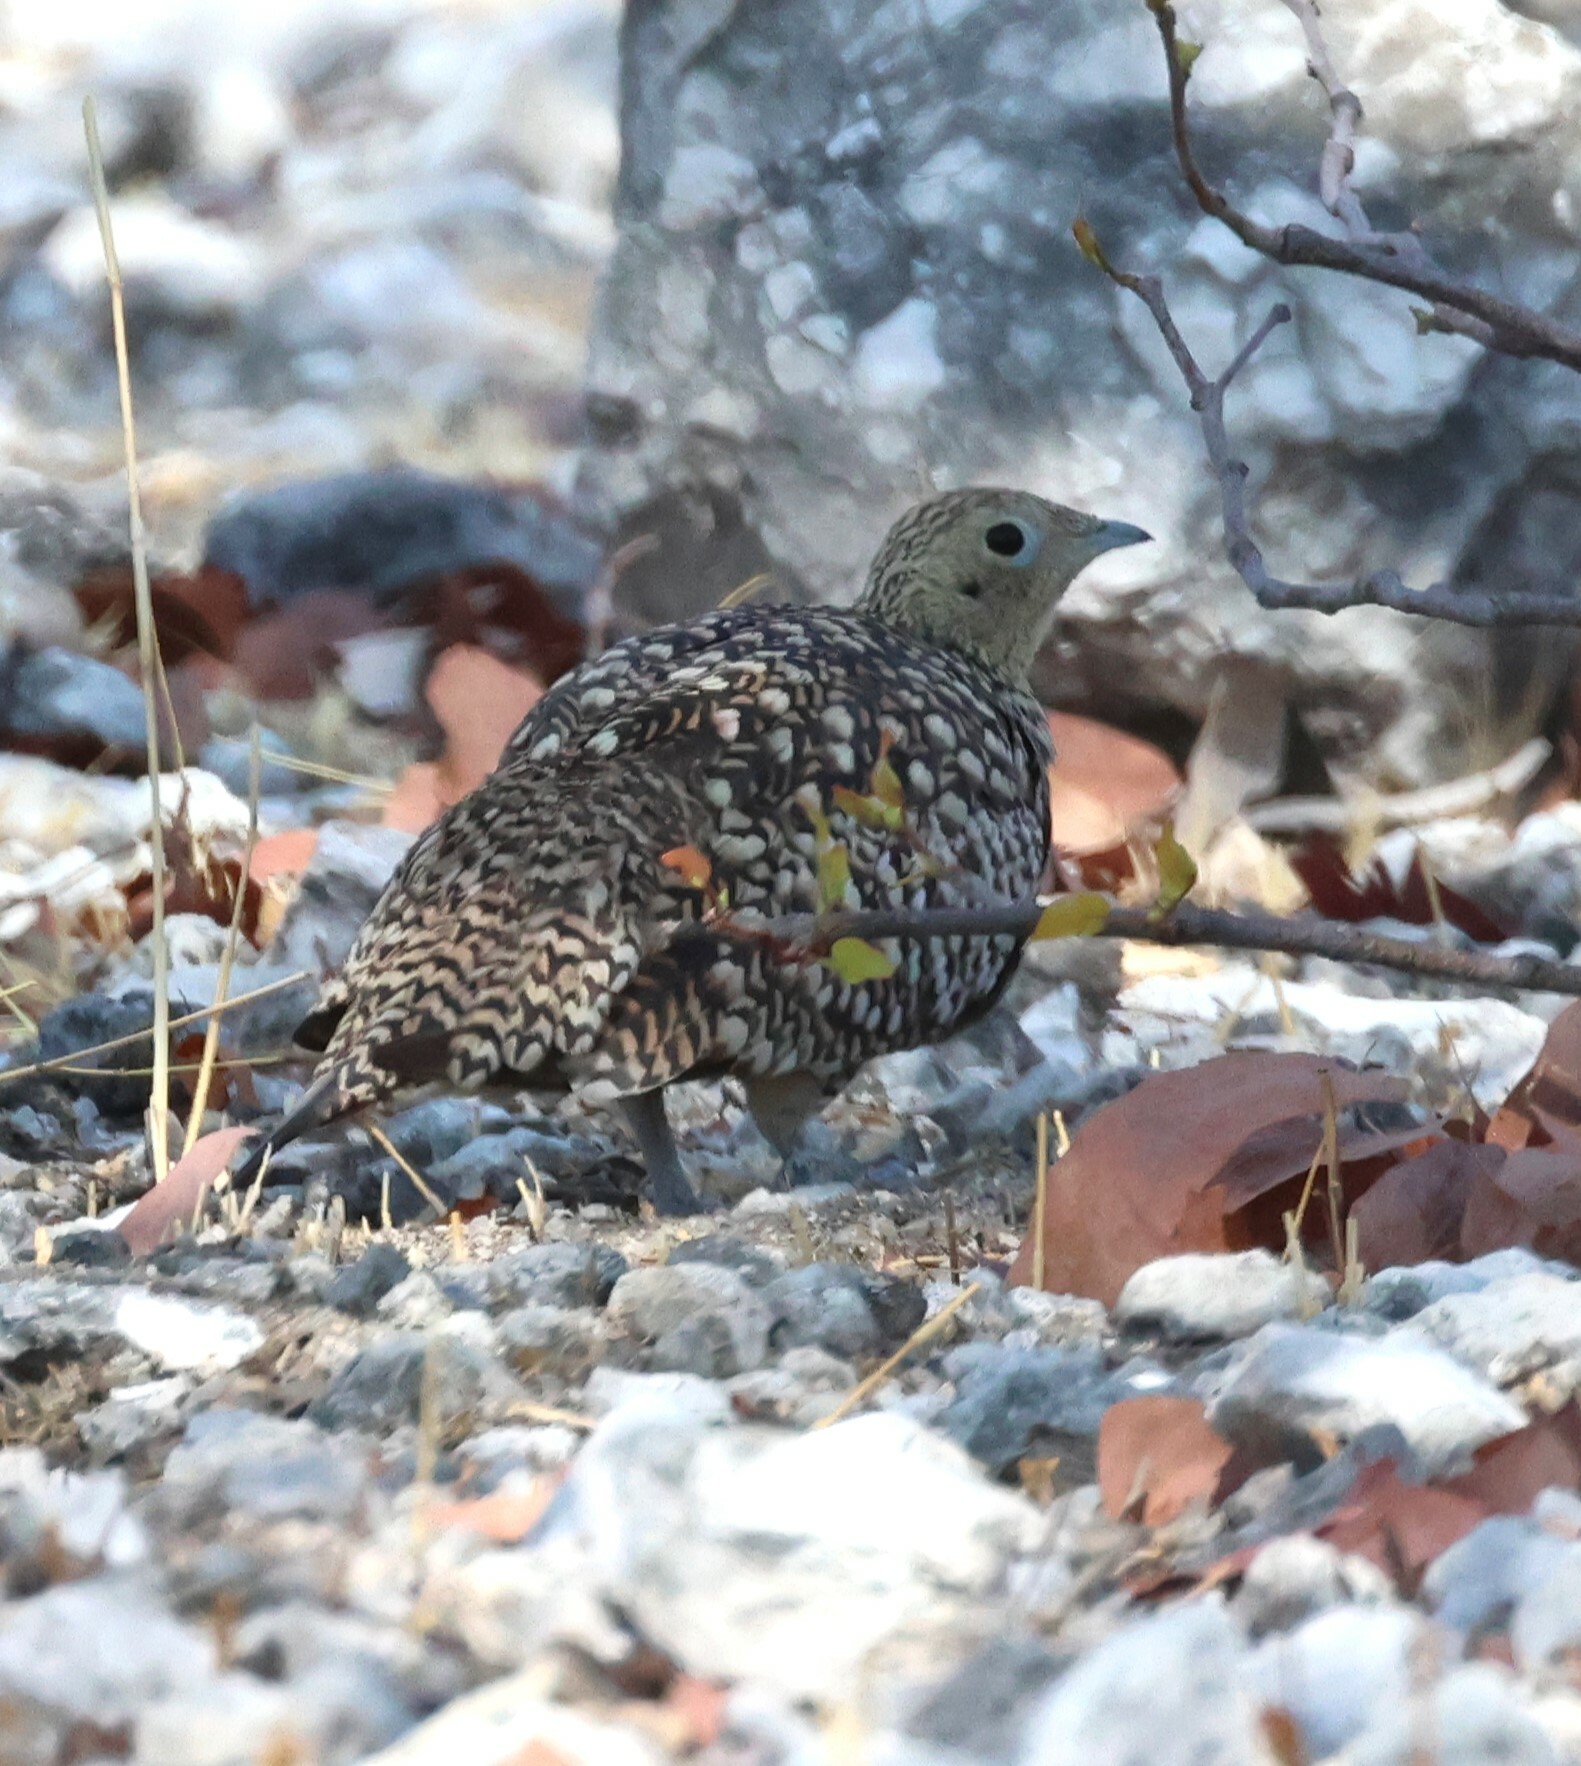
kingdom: Animalia
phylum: Chordata
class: Aves
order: Pteroclidiformes
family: Pteroclididae
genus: Pterocles
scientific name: Pterocles namaqua
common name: Namaqua sandgrouse
